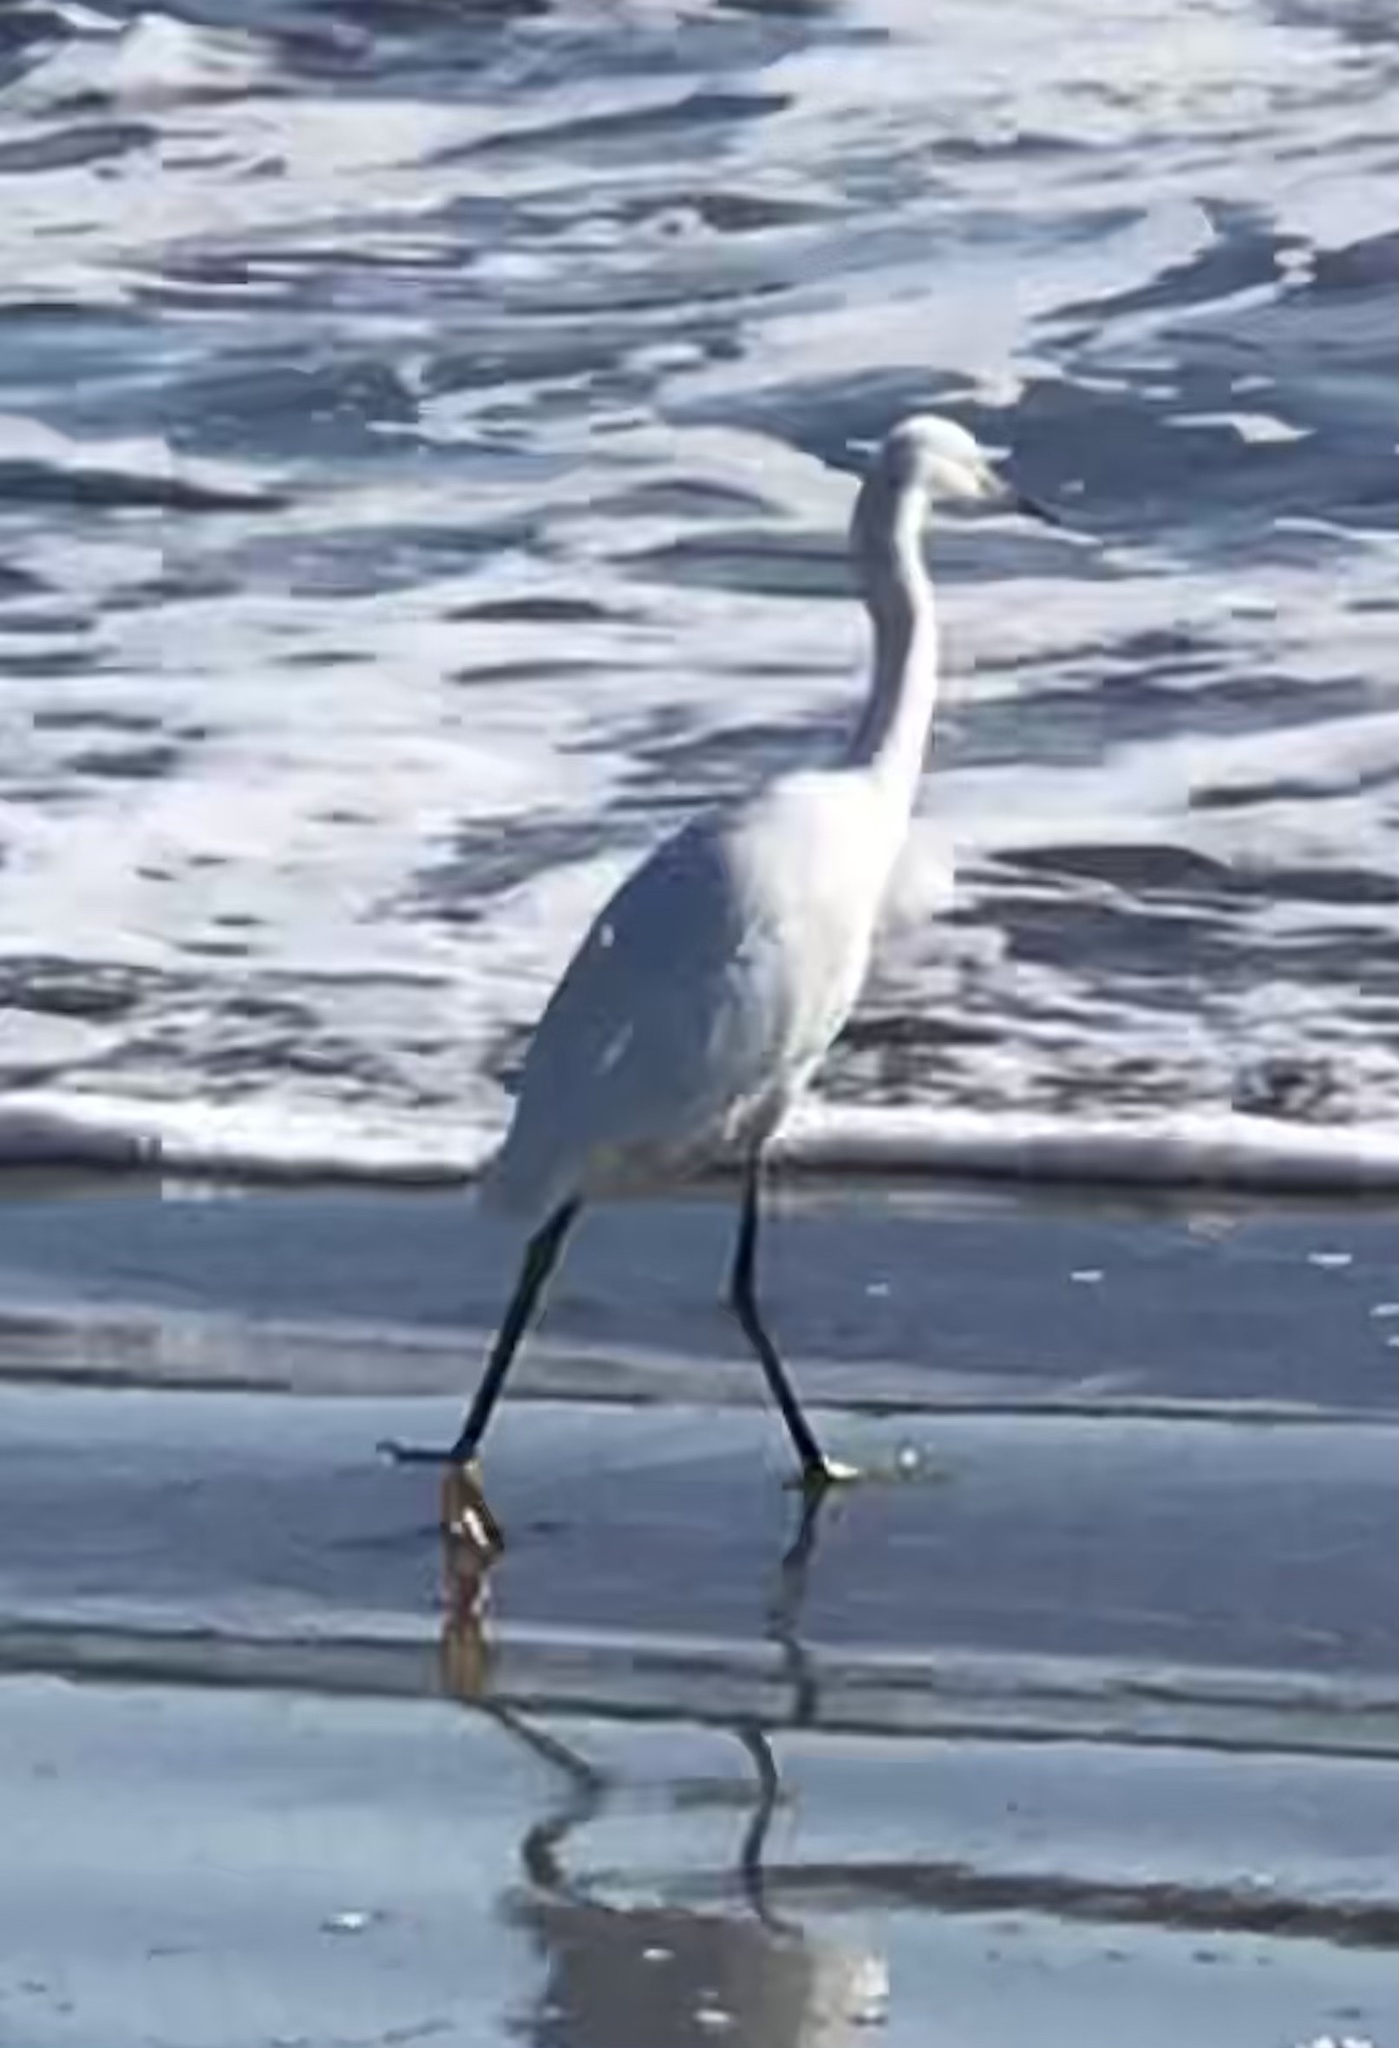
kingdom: Animalia
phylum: Chordata
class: Aves
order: Pelecaniformes
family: Ardeidae
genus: Egretta
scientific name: Egretta thula
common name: Snowy egret
